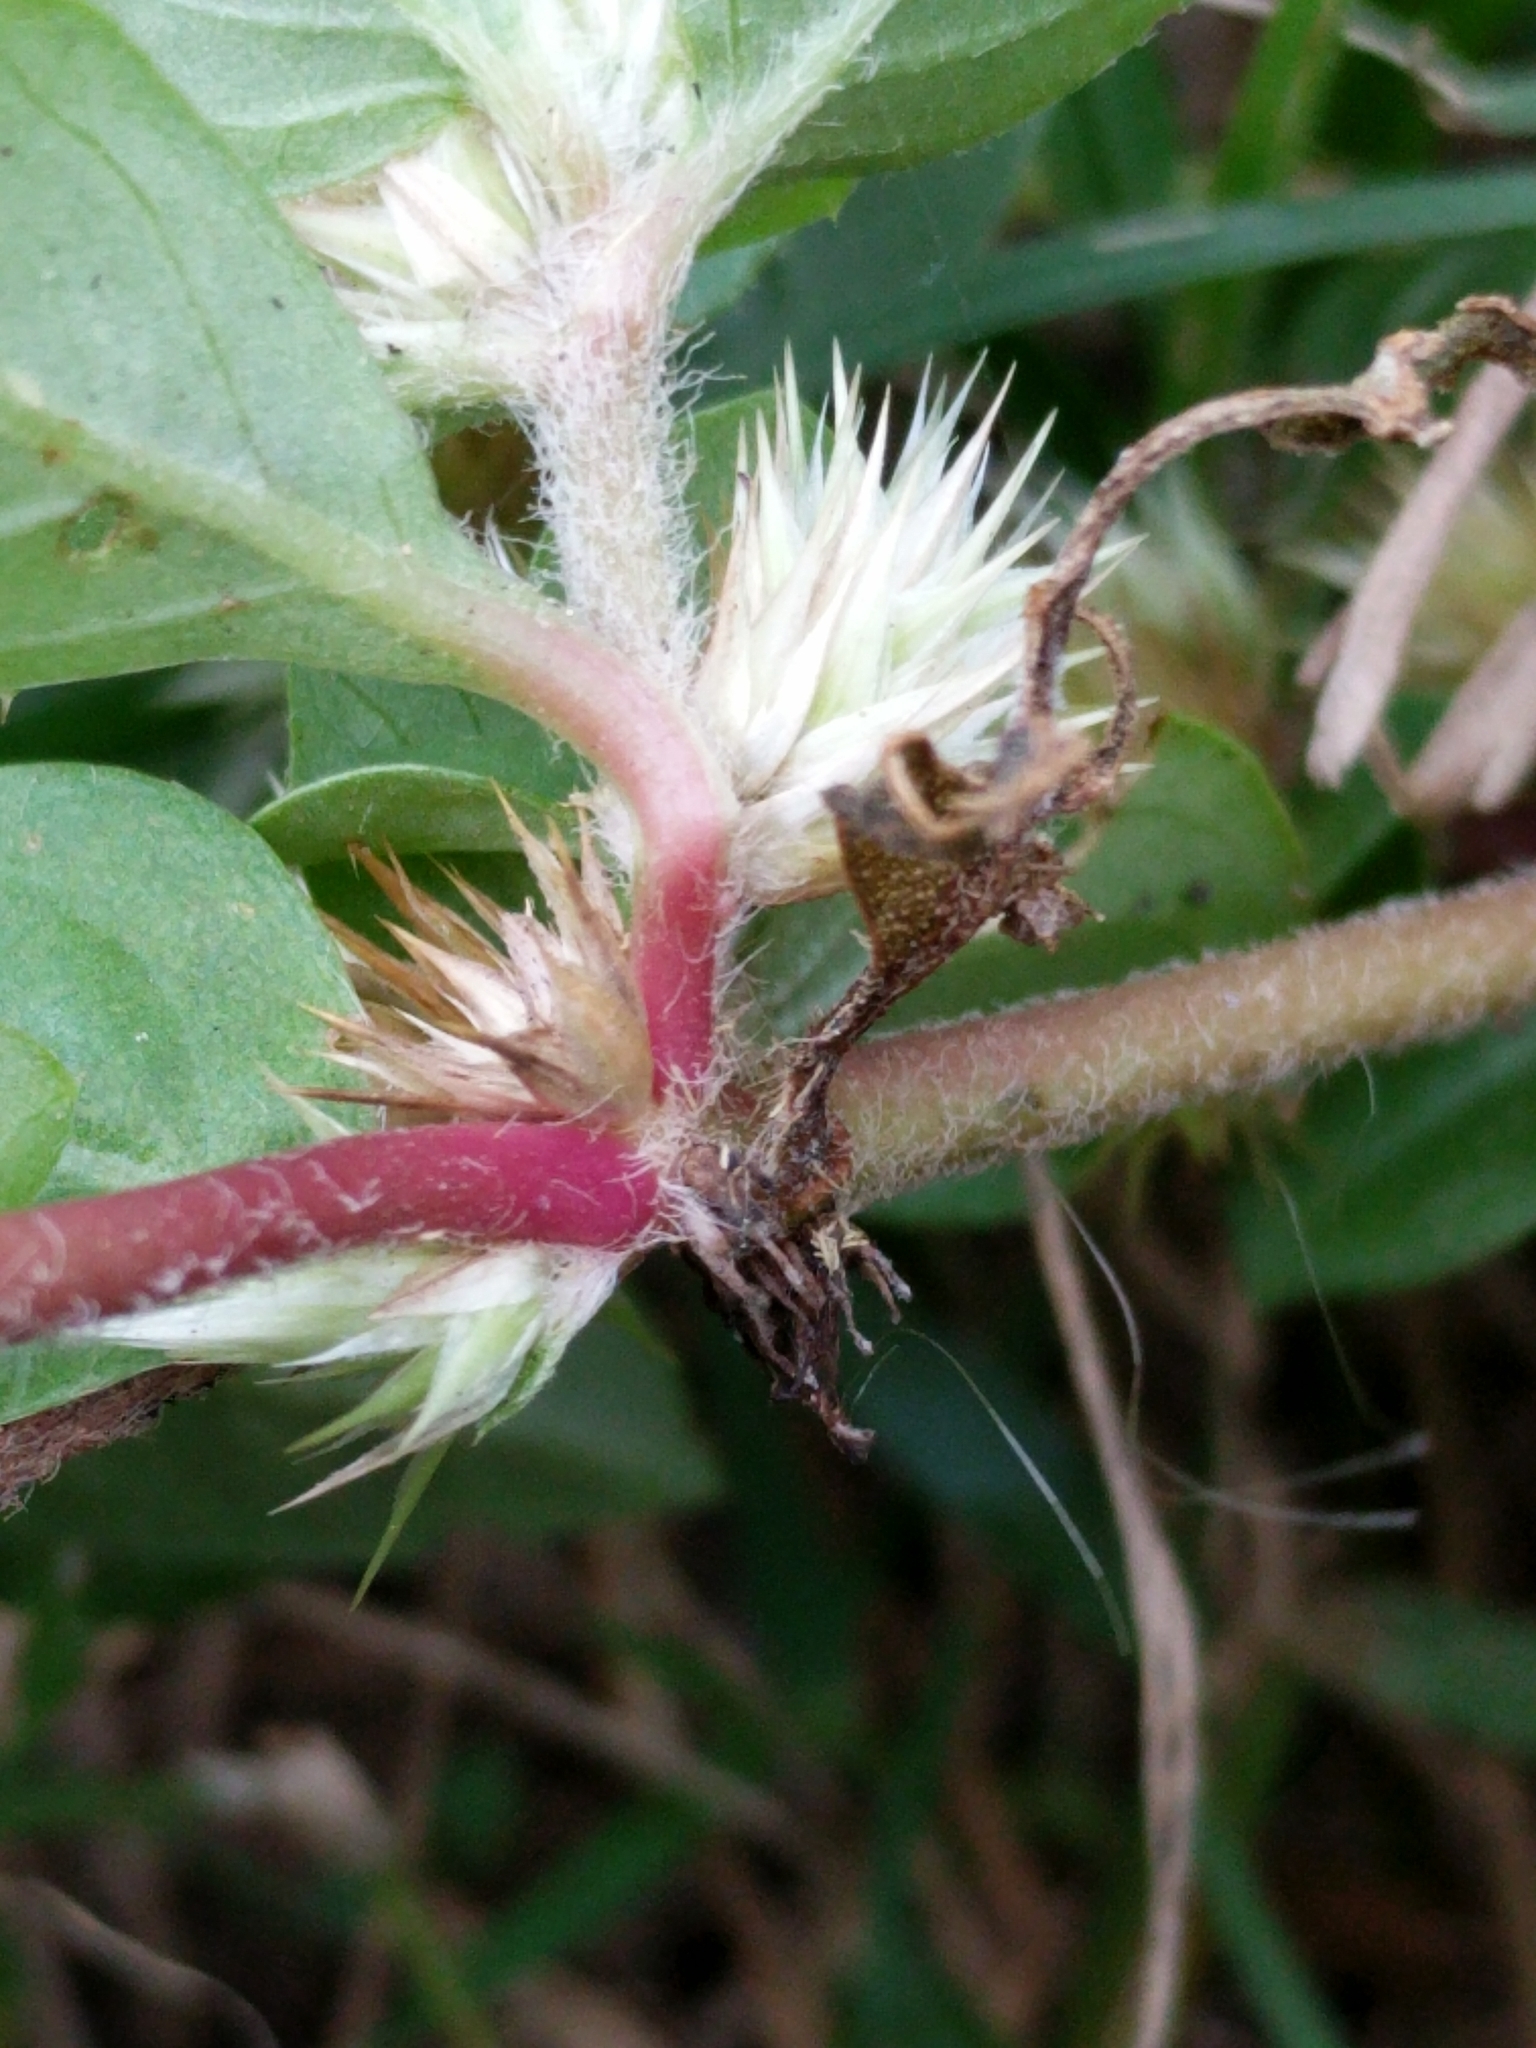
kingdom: Plantae
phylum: Tracheophyta
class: Magnoliopsida
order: Caryophyllales
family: Amaranthaceae
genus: Alternanthera
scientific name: Alternanthera pungens
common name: Khakiweed
